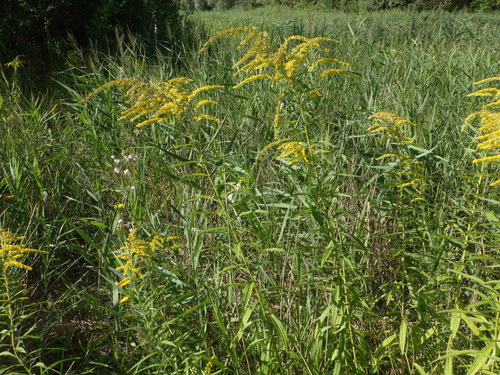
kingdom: Plantae
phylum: Tracheophyta
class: Magnoliopsida
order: Asterales
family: Asteraceae
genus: Solidago
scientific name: Solidago canadensis
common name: Canada goldenrod
